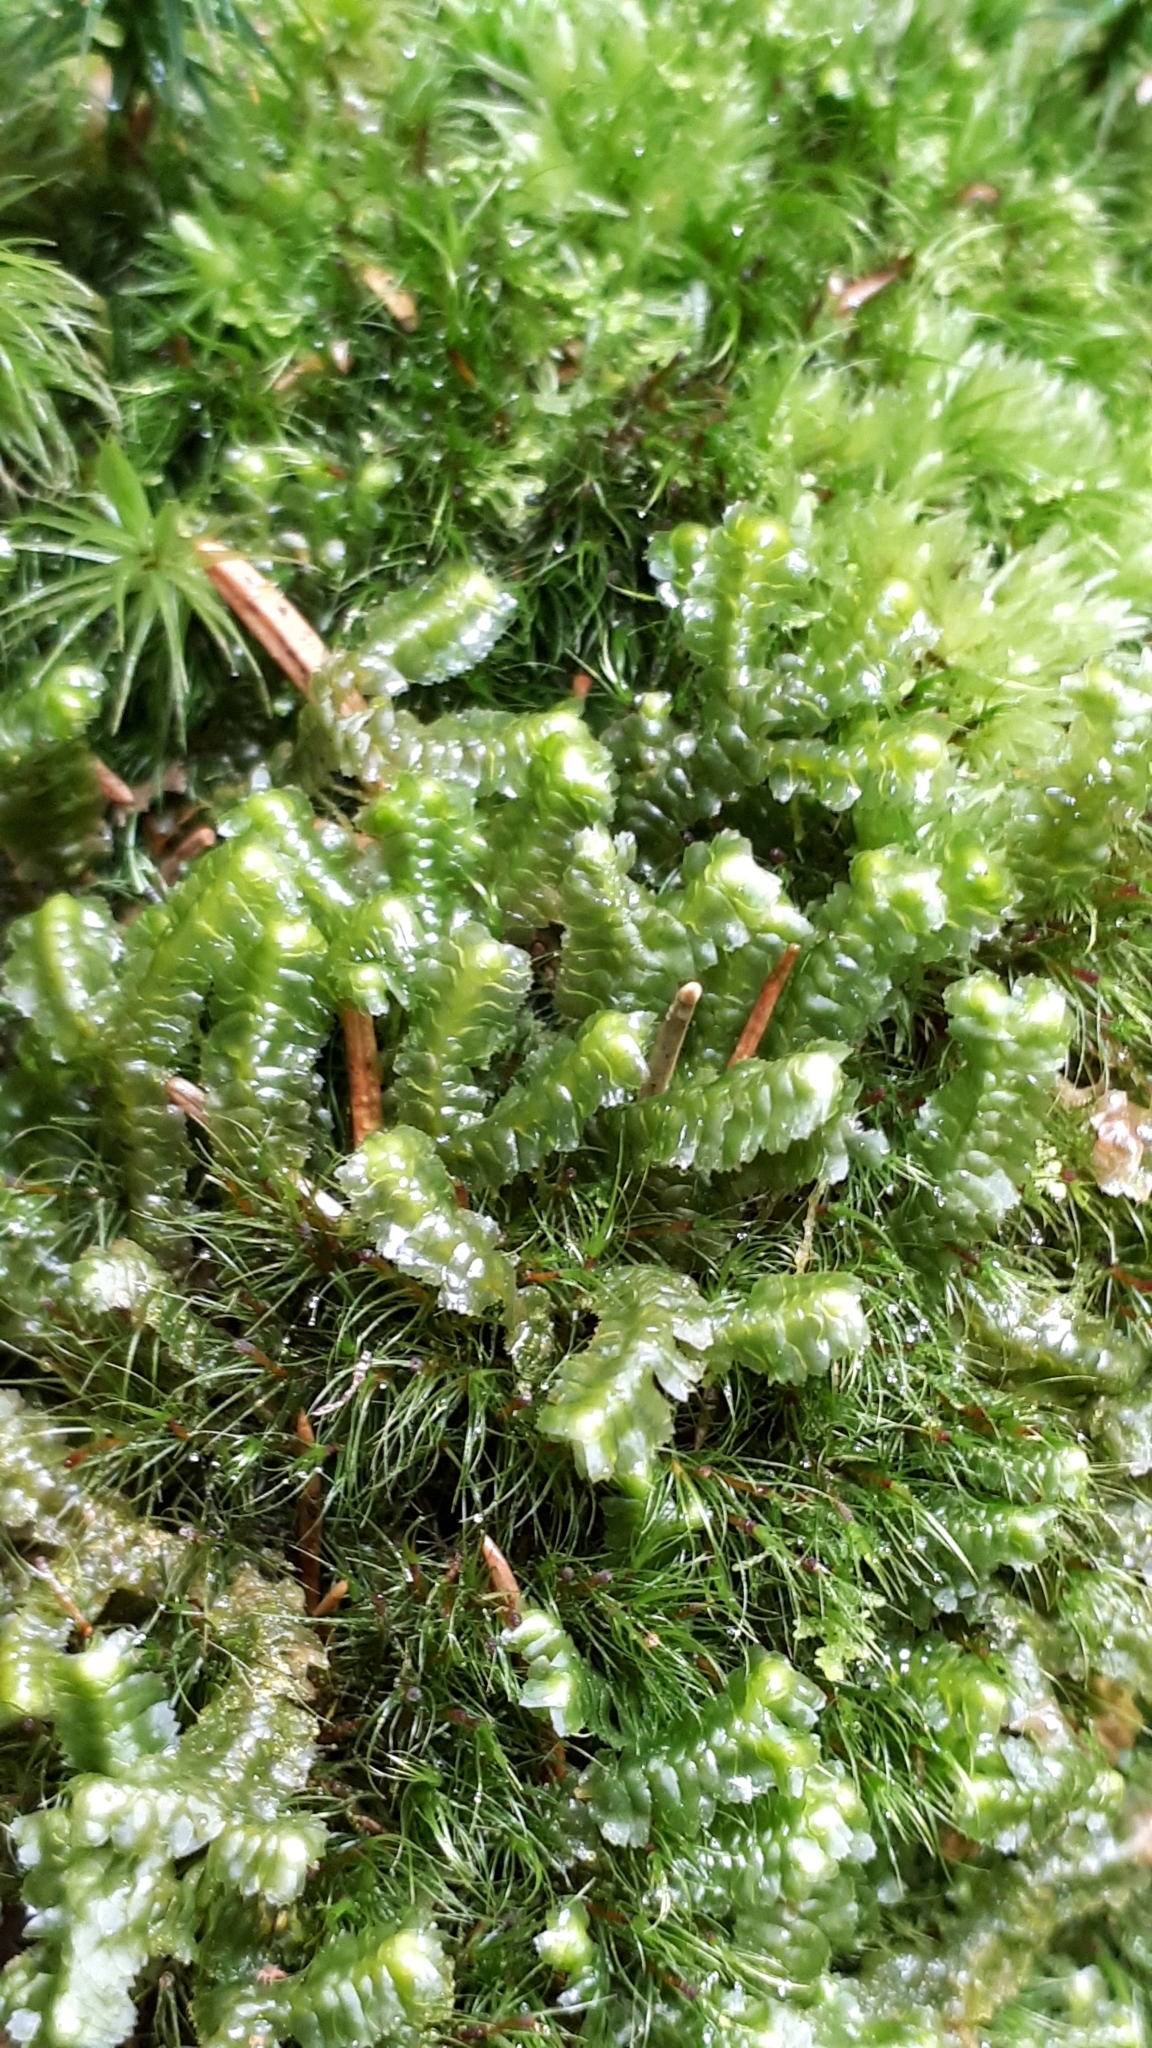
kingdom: Plantae
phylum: Marchantiophyta
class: Jungermanniopsida
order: Jungermanniales
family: Lepidoziaceae
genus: Bazzania
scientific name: Bazzania trilobata
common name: Three-lobed whipwort
